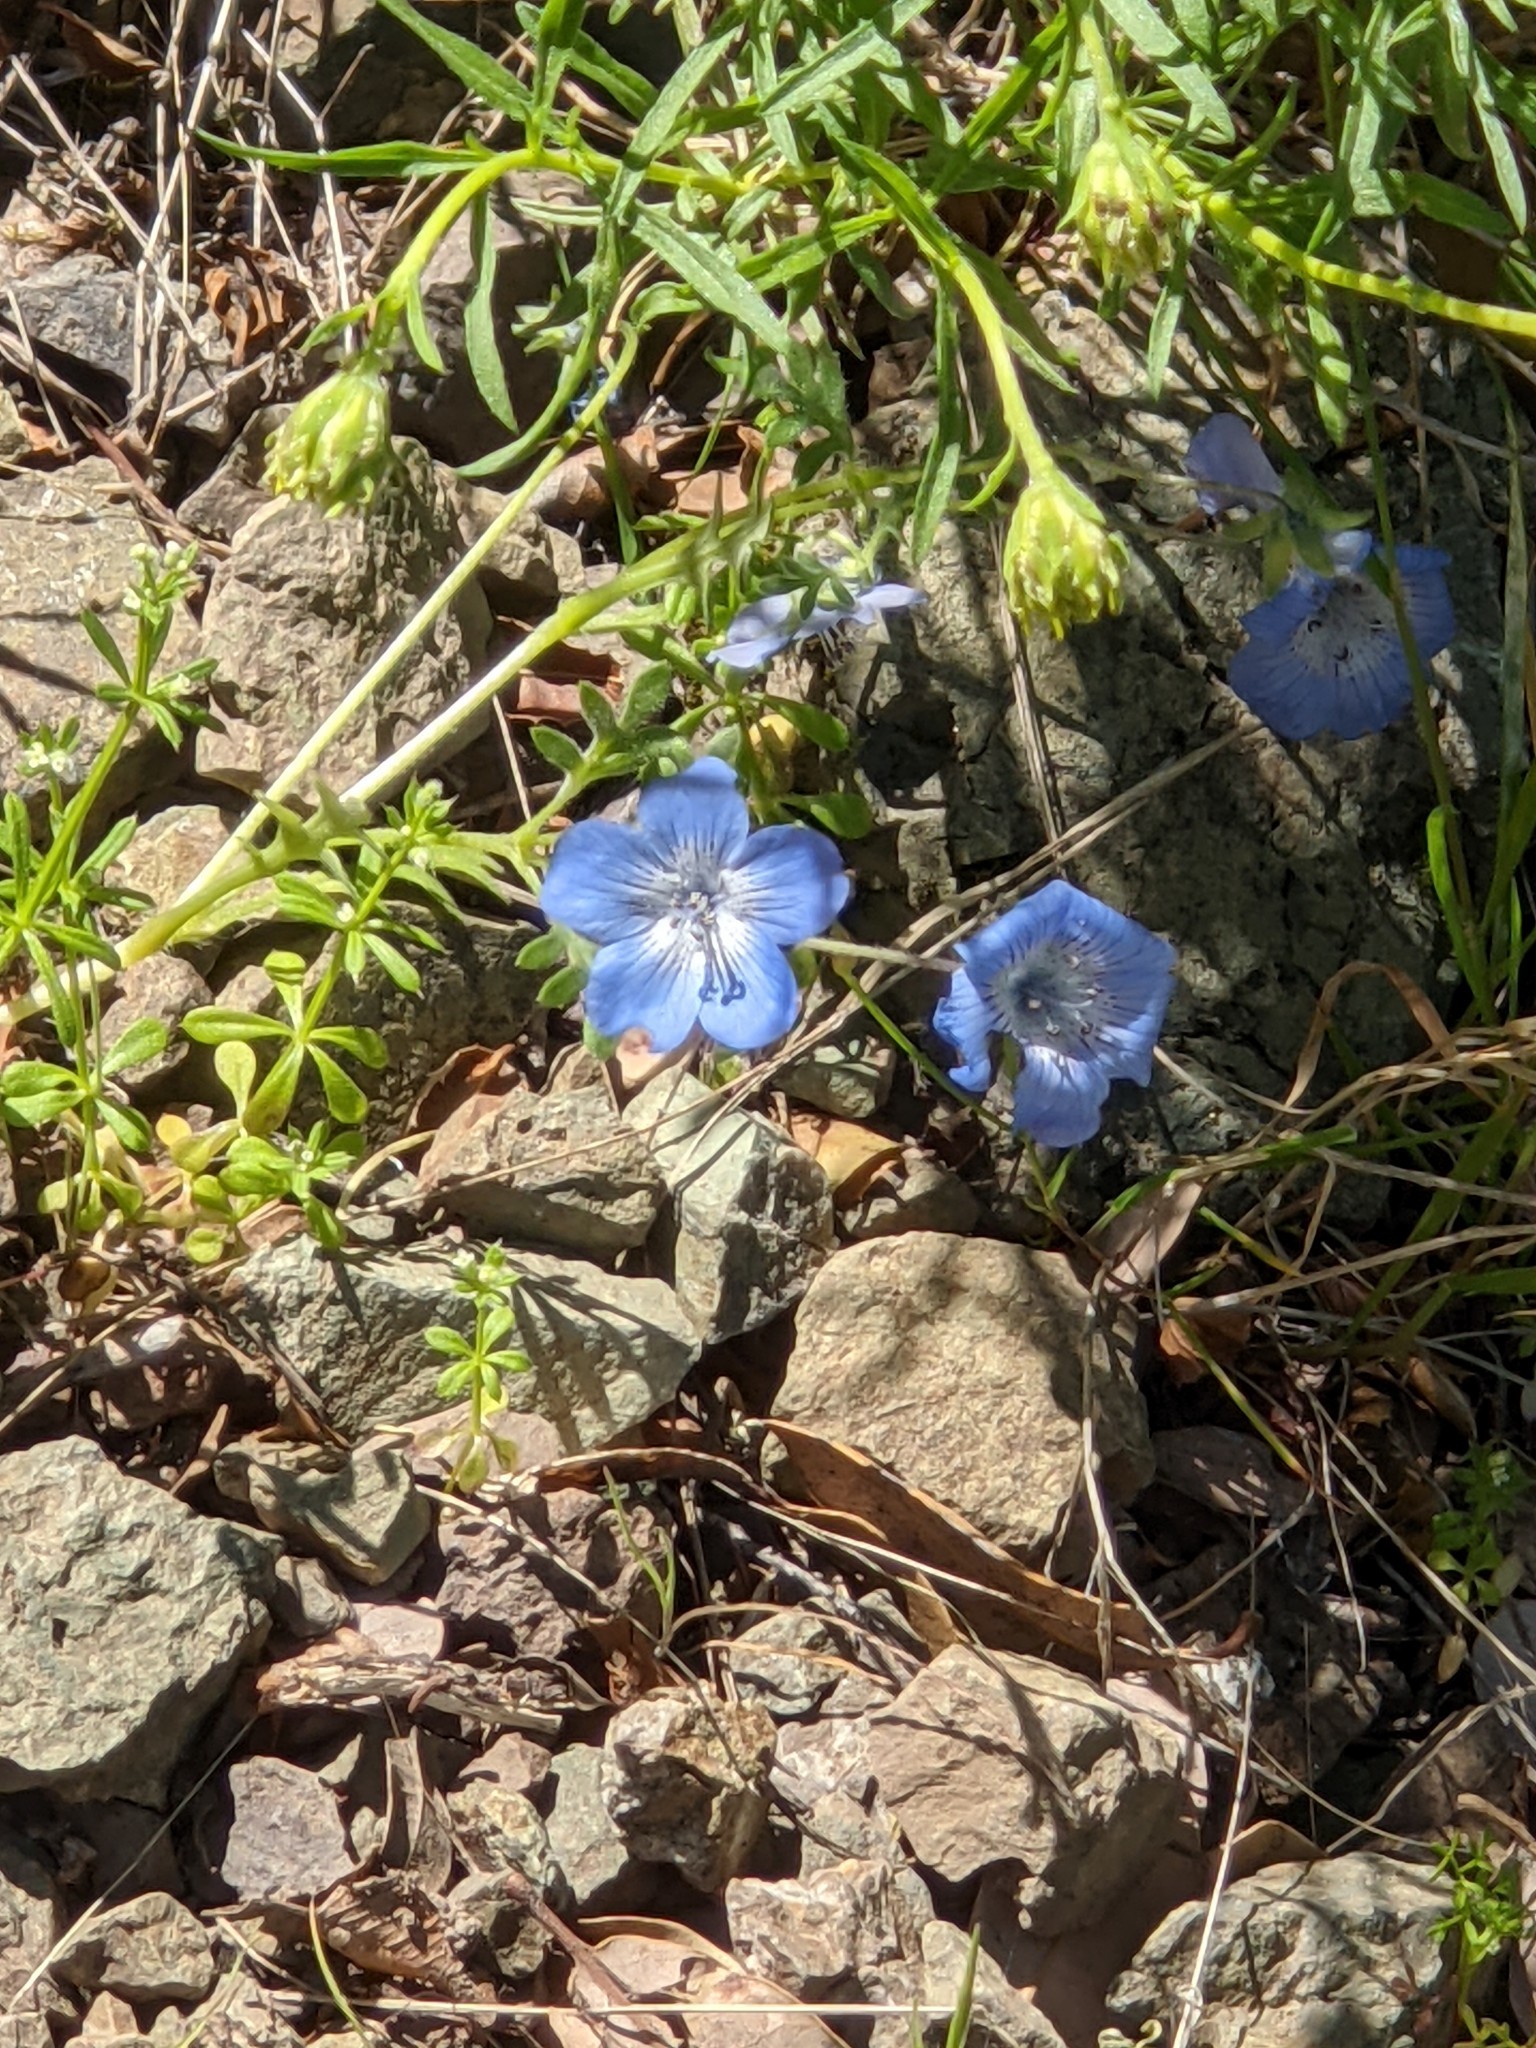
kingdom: Plantae
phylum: Tracheophyta
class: Magnoliopsida
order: Boraginales
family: Hydrophyllaceae
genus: Nemophila
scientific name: Nemophila menziesii
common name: Baby's-blue-eyes
